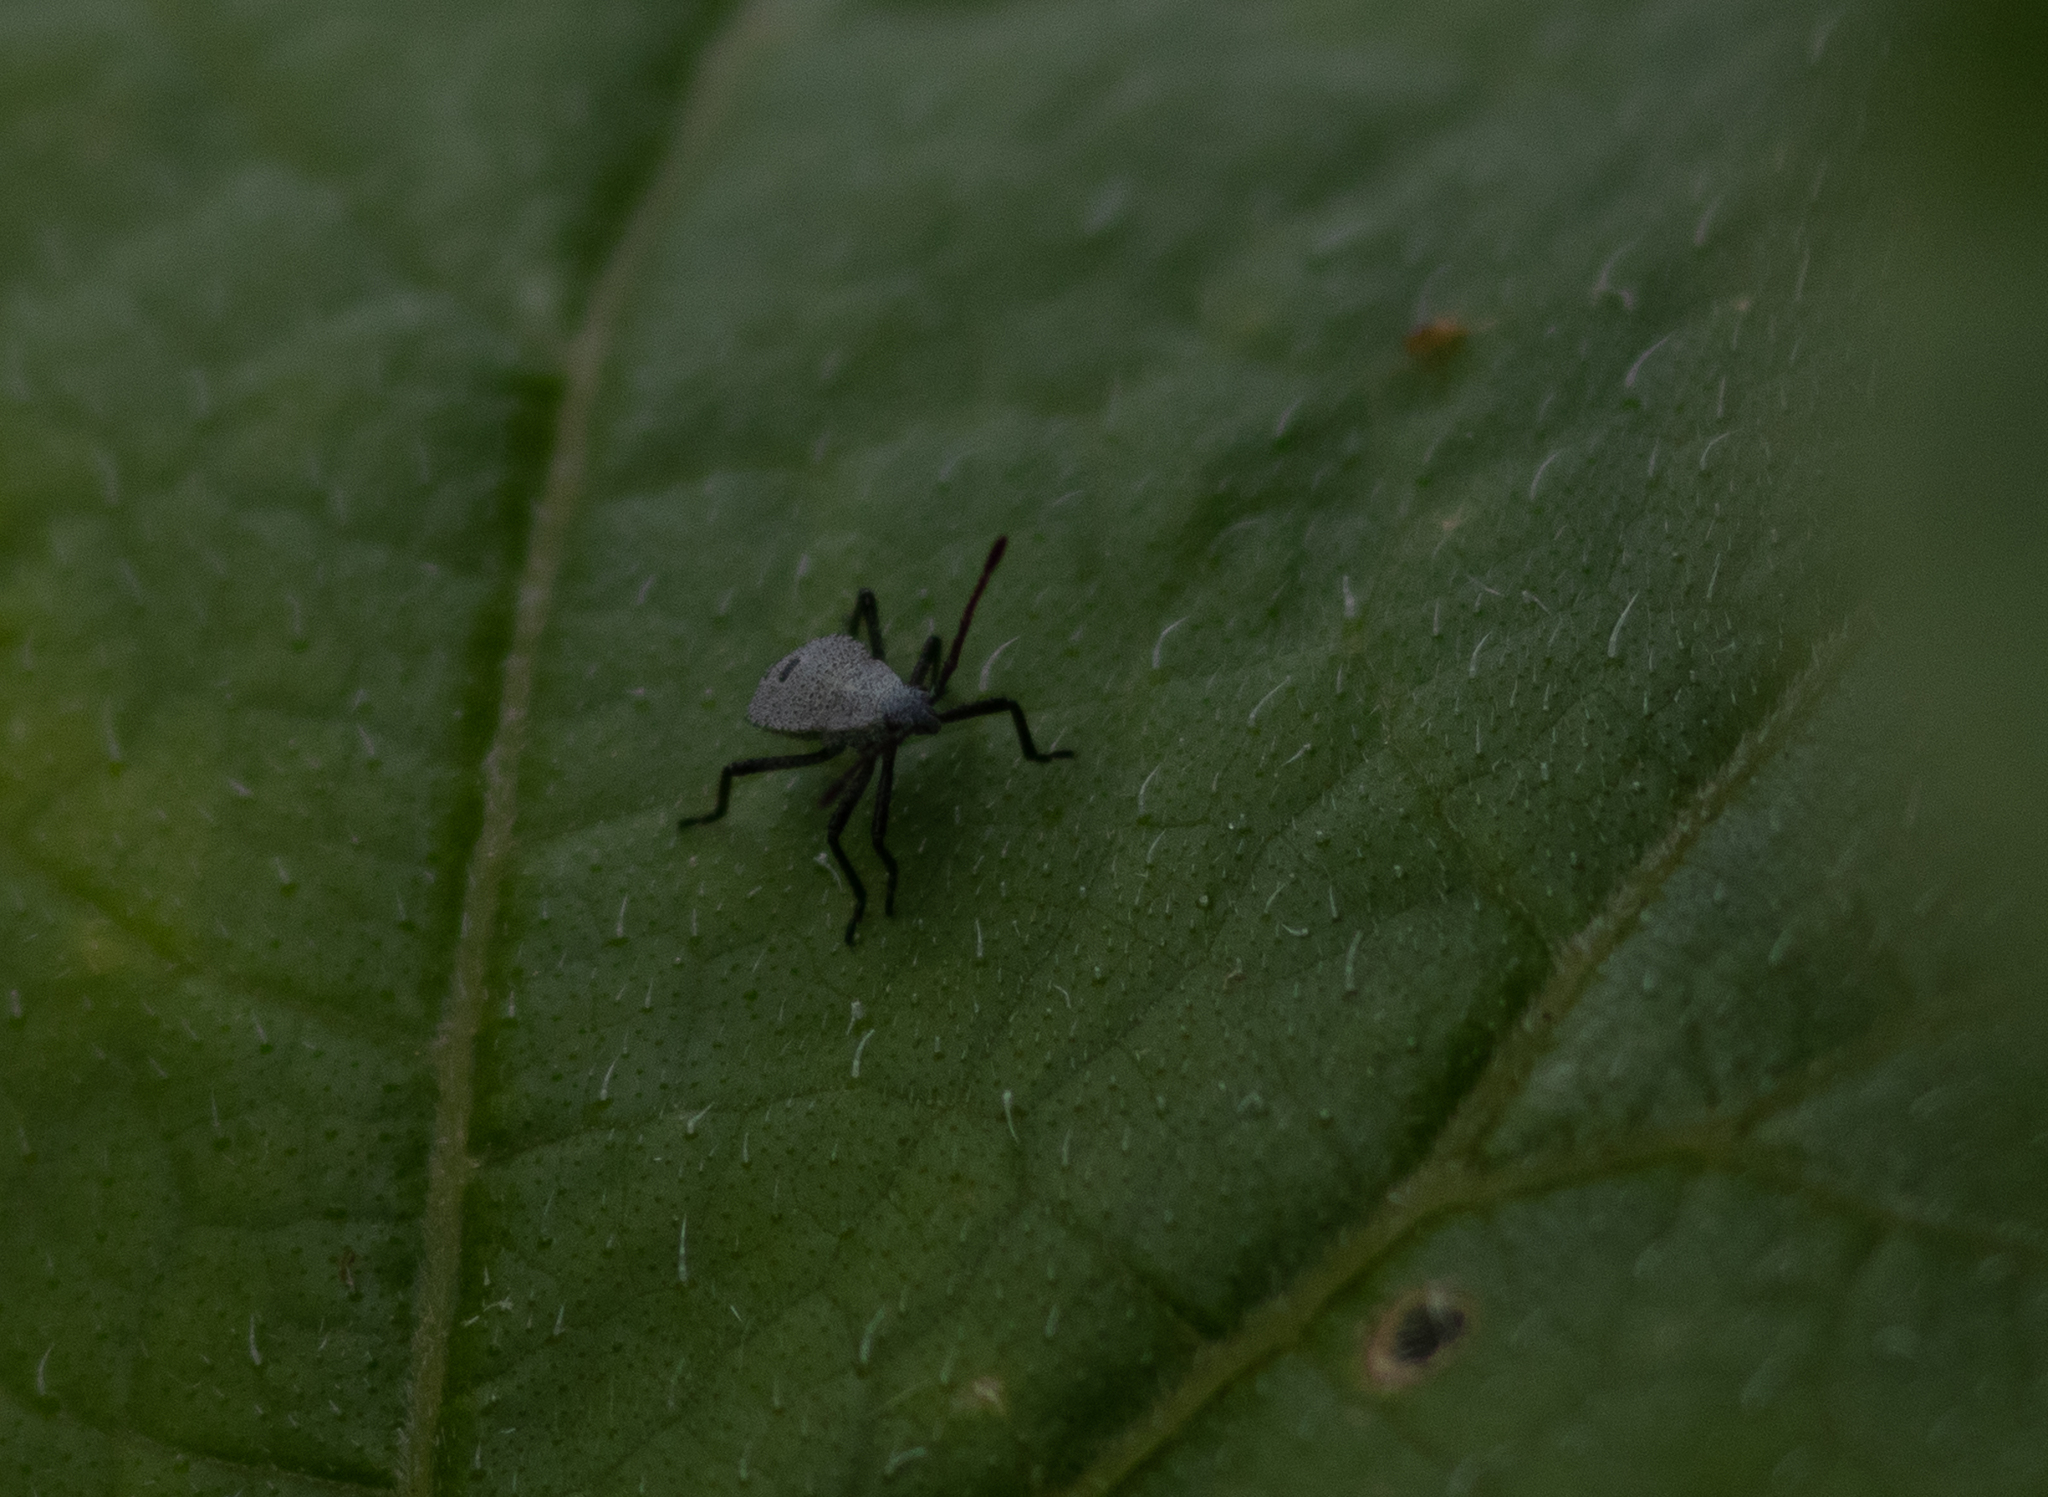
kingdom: Animalia
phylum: Arthropoda
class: Insecta
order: Hemiptera
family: Coreidae
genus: Anasa
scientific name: Anasa tristis
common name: Squash bug
